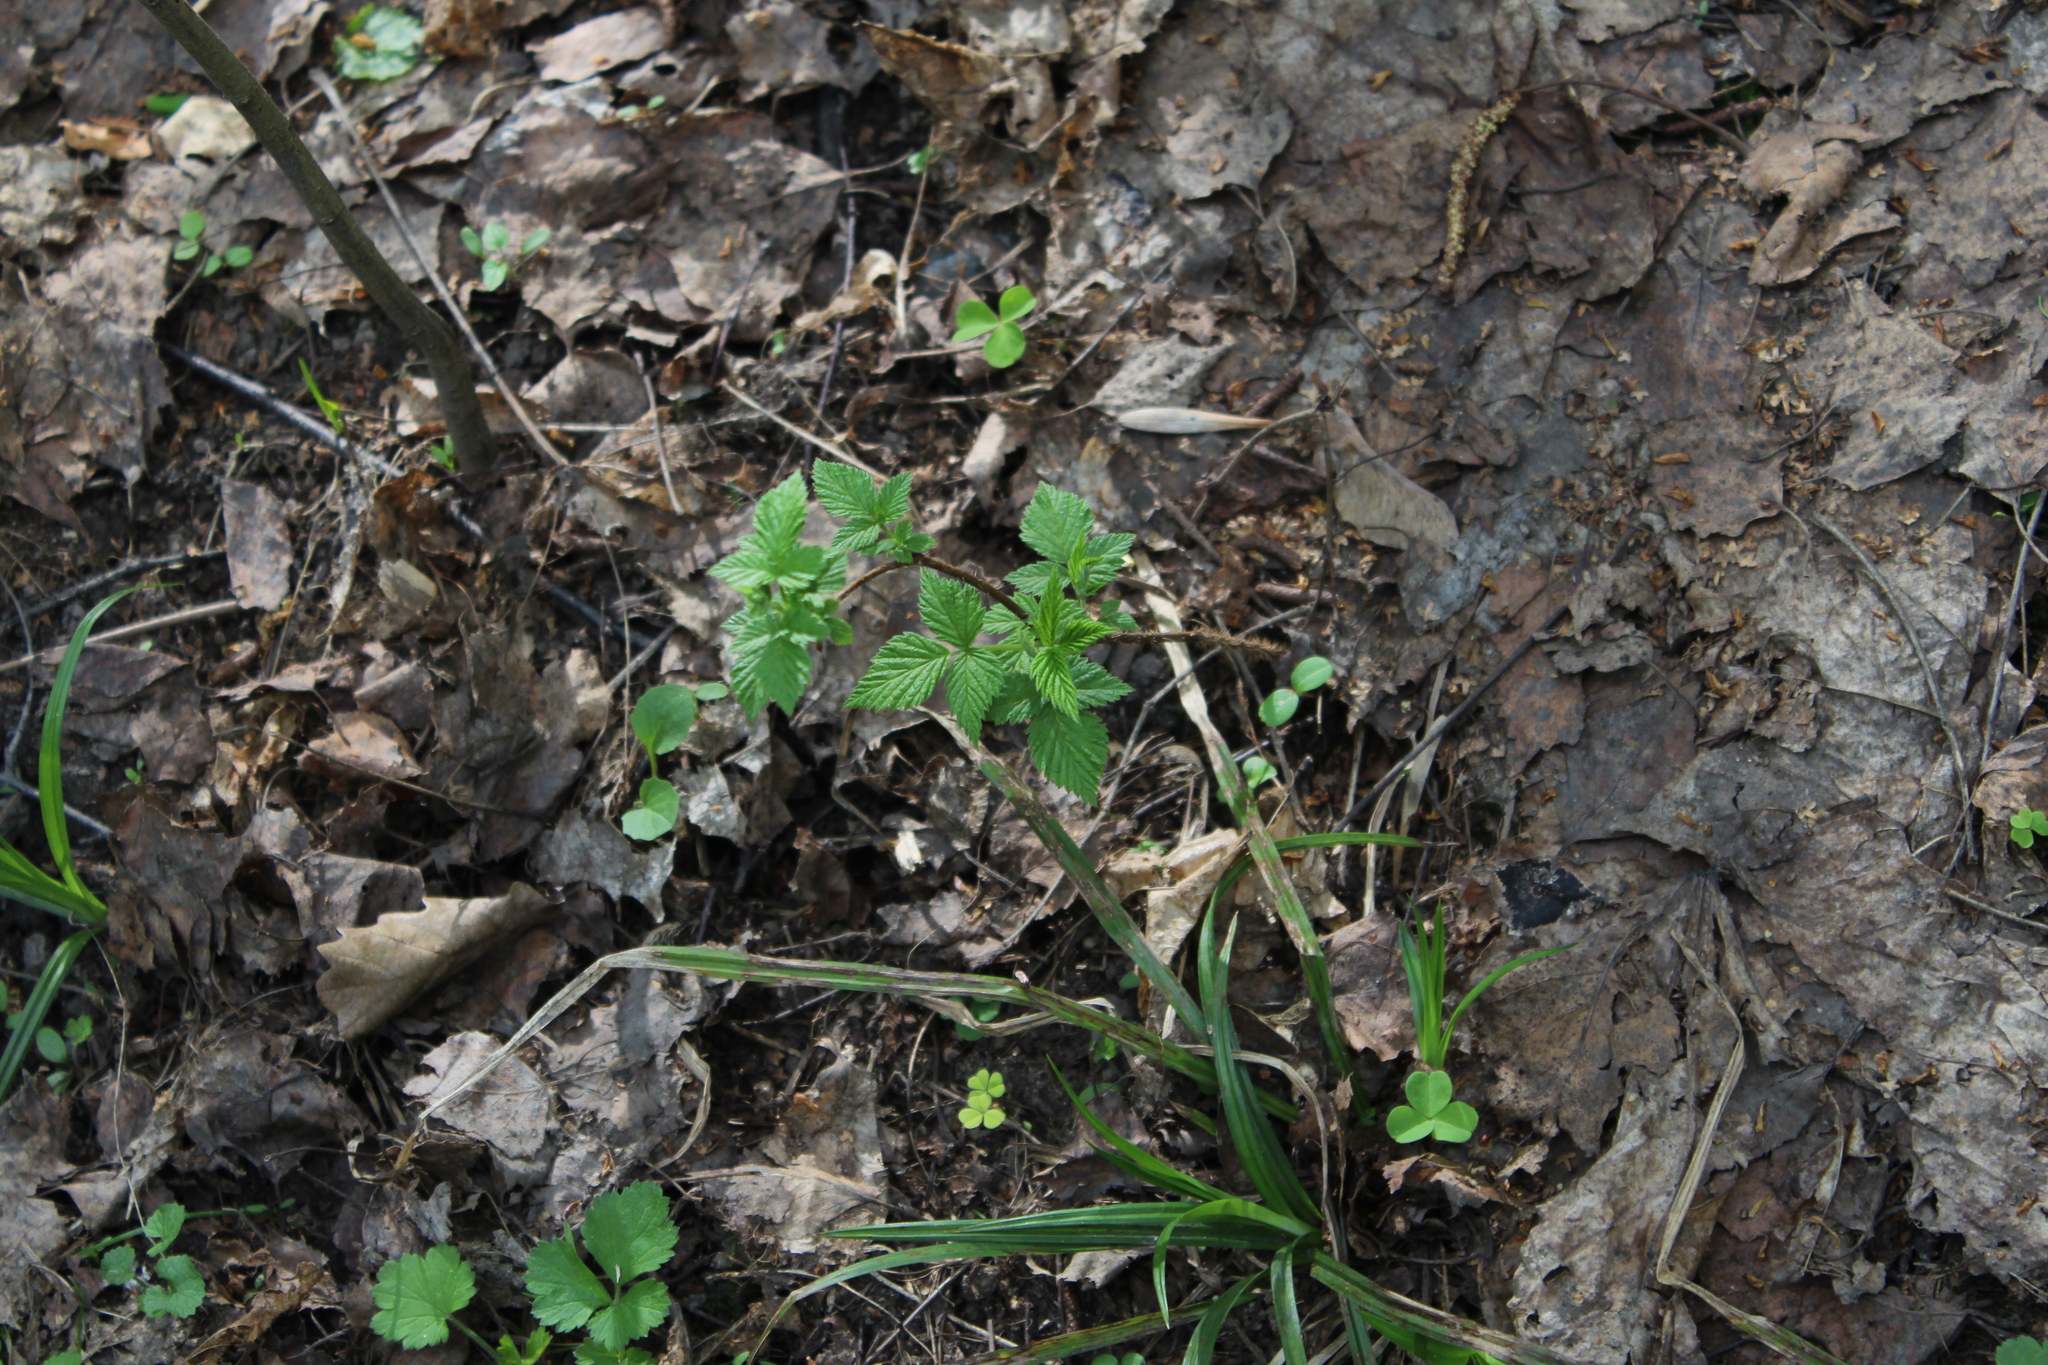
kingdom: Plantae
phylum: Tracheophyta
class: Magnoliopsida
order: Rosales
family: Rosaceae
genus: Rubus
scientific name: Rubus idaeus
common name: Raspberry
